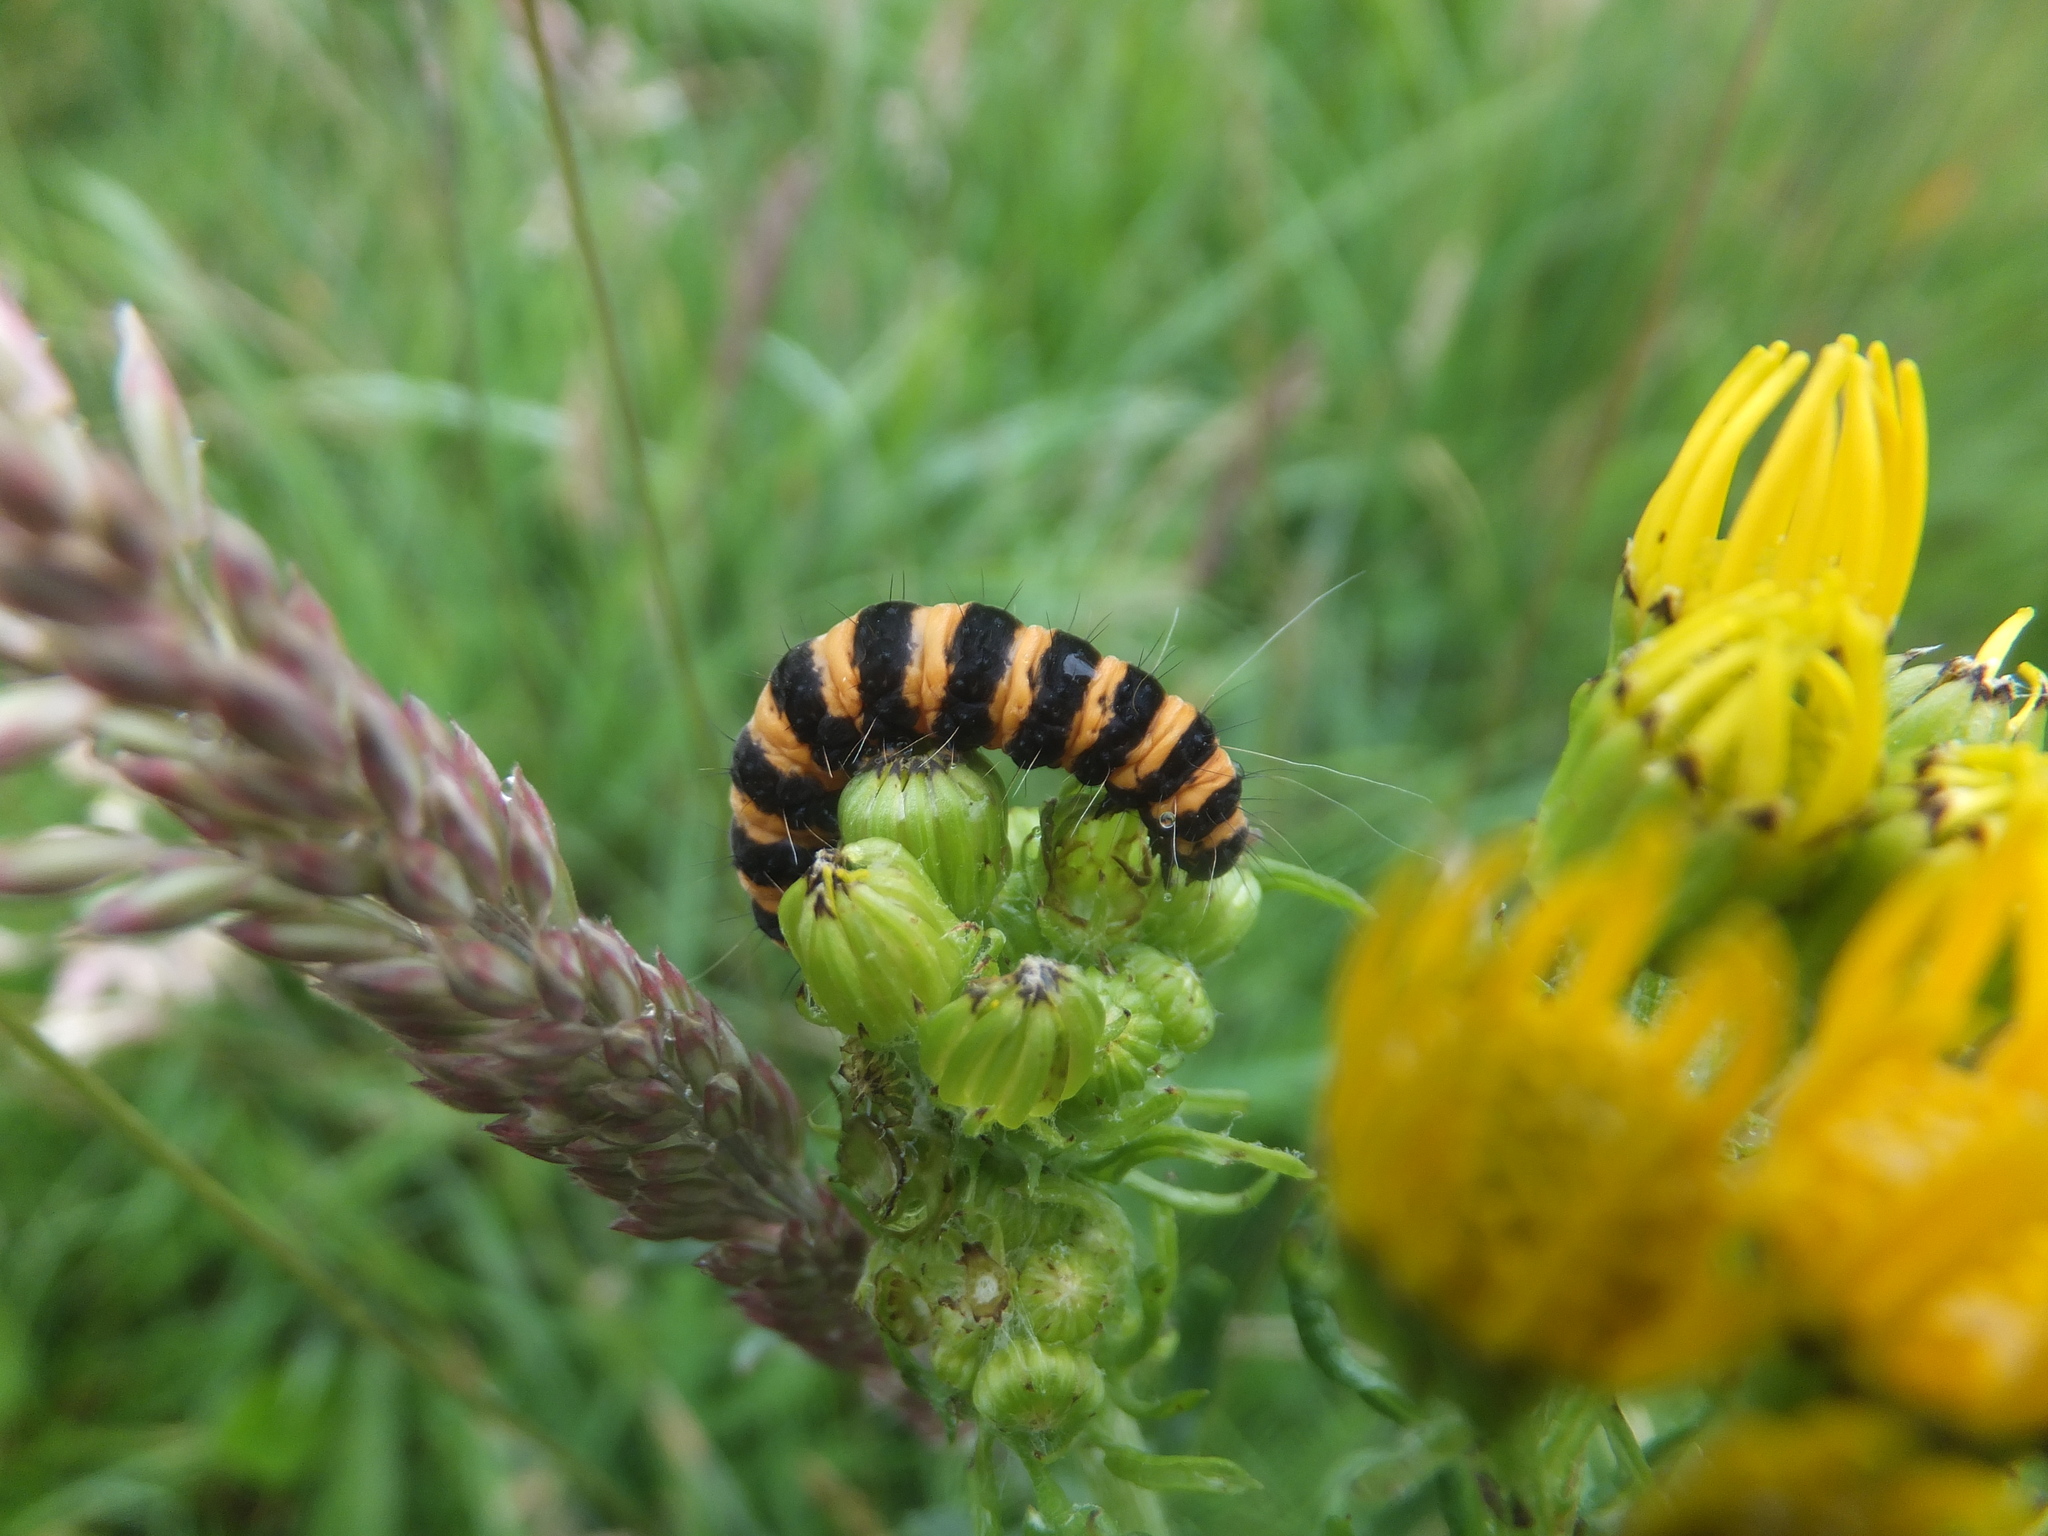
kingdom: Animalia
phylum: Arthropoda
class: Insecta
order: Lepidoptera
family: Erebidae
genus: Tyria
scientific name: Tyria jacobaeae
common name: Cinnabar
